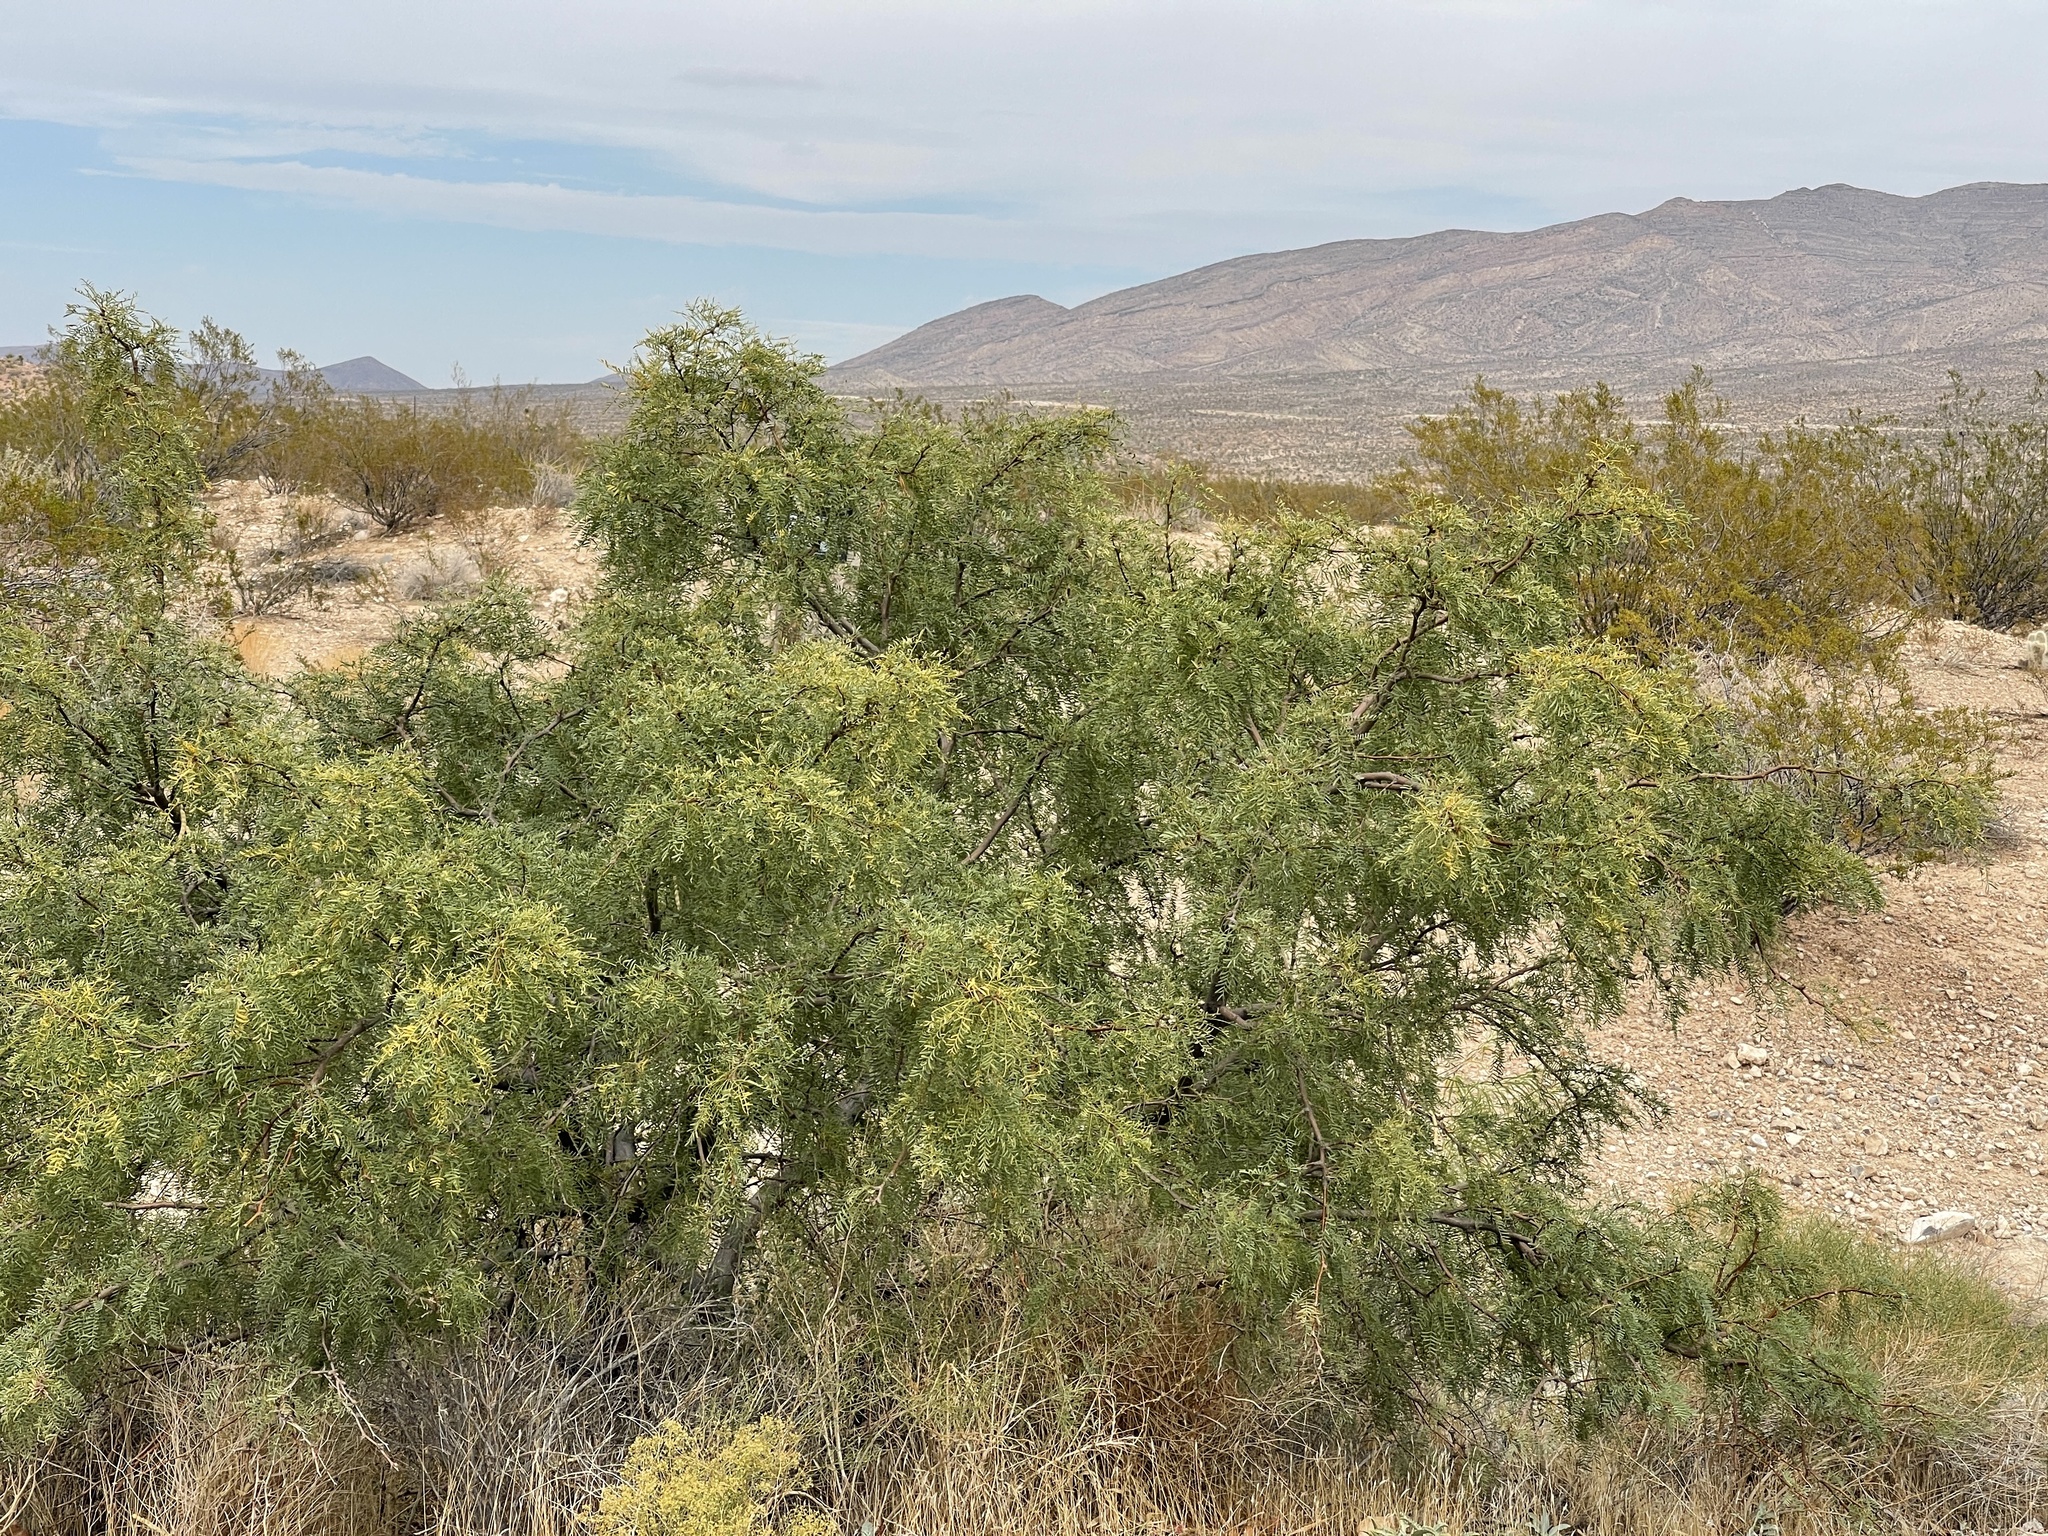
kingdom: Plantae
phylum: Tracheophyta
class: Magnoliopsida
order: Fabales
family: Fabaceae
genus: Prosopis
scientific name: Prosopis pubescens
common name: Screw-bean
